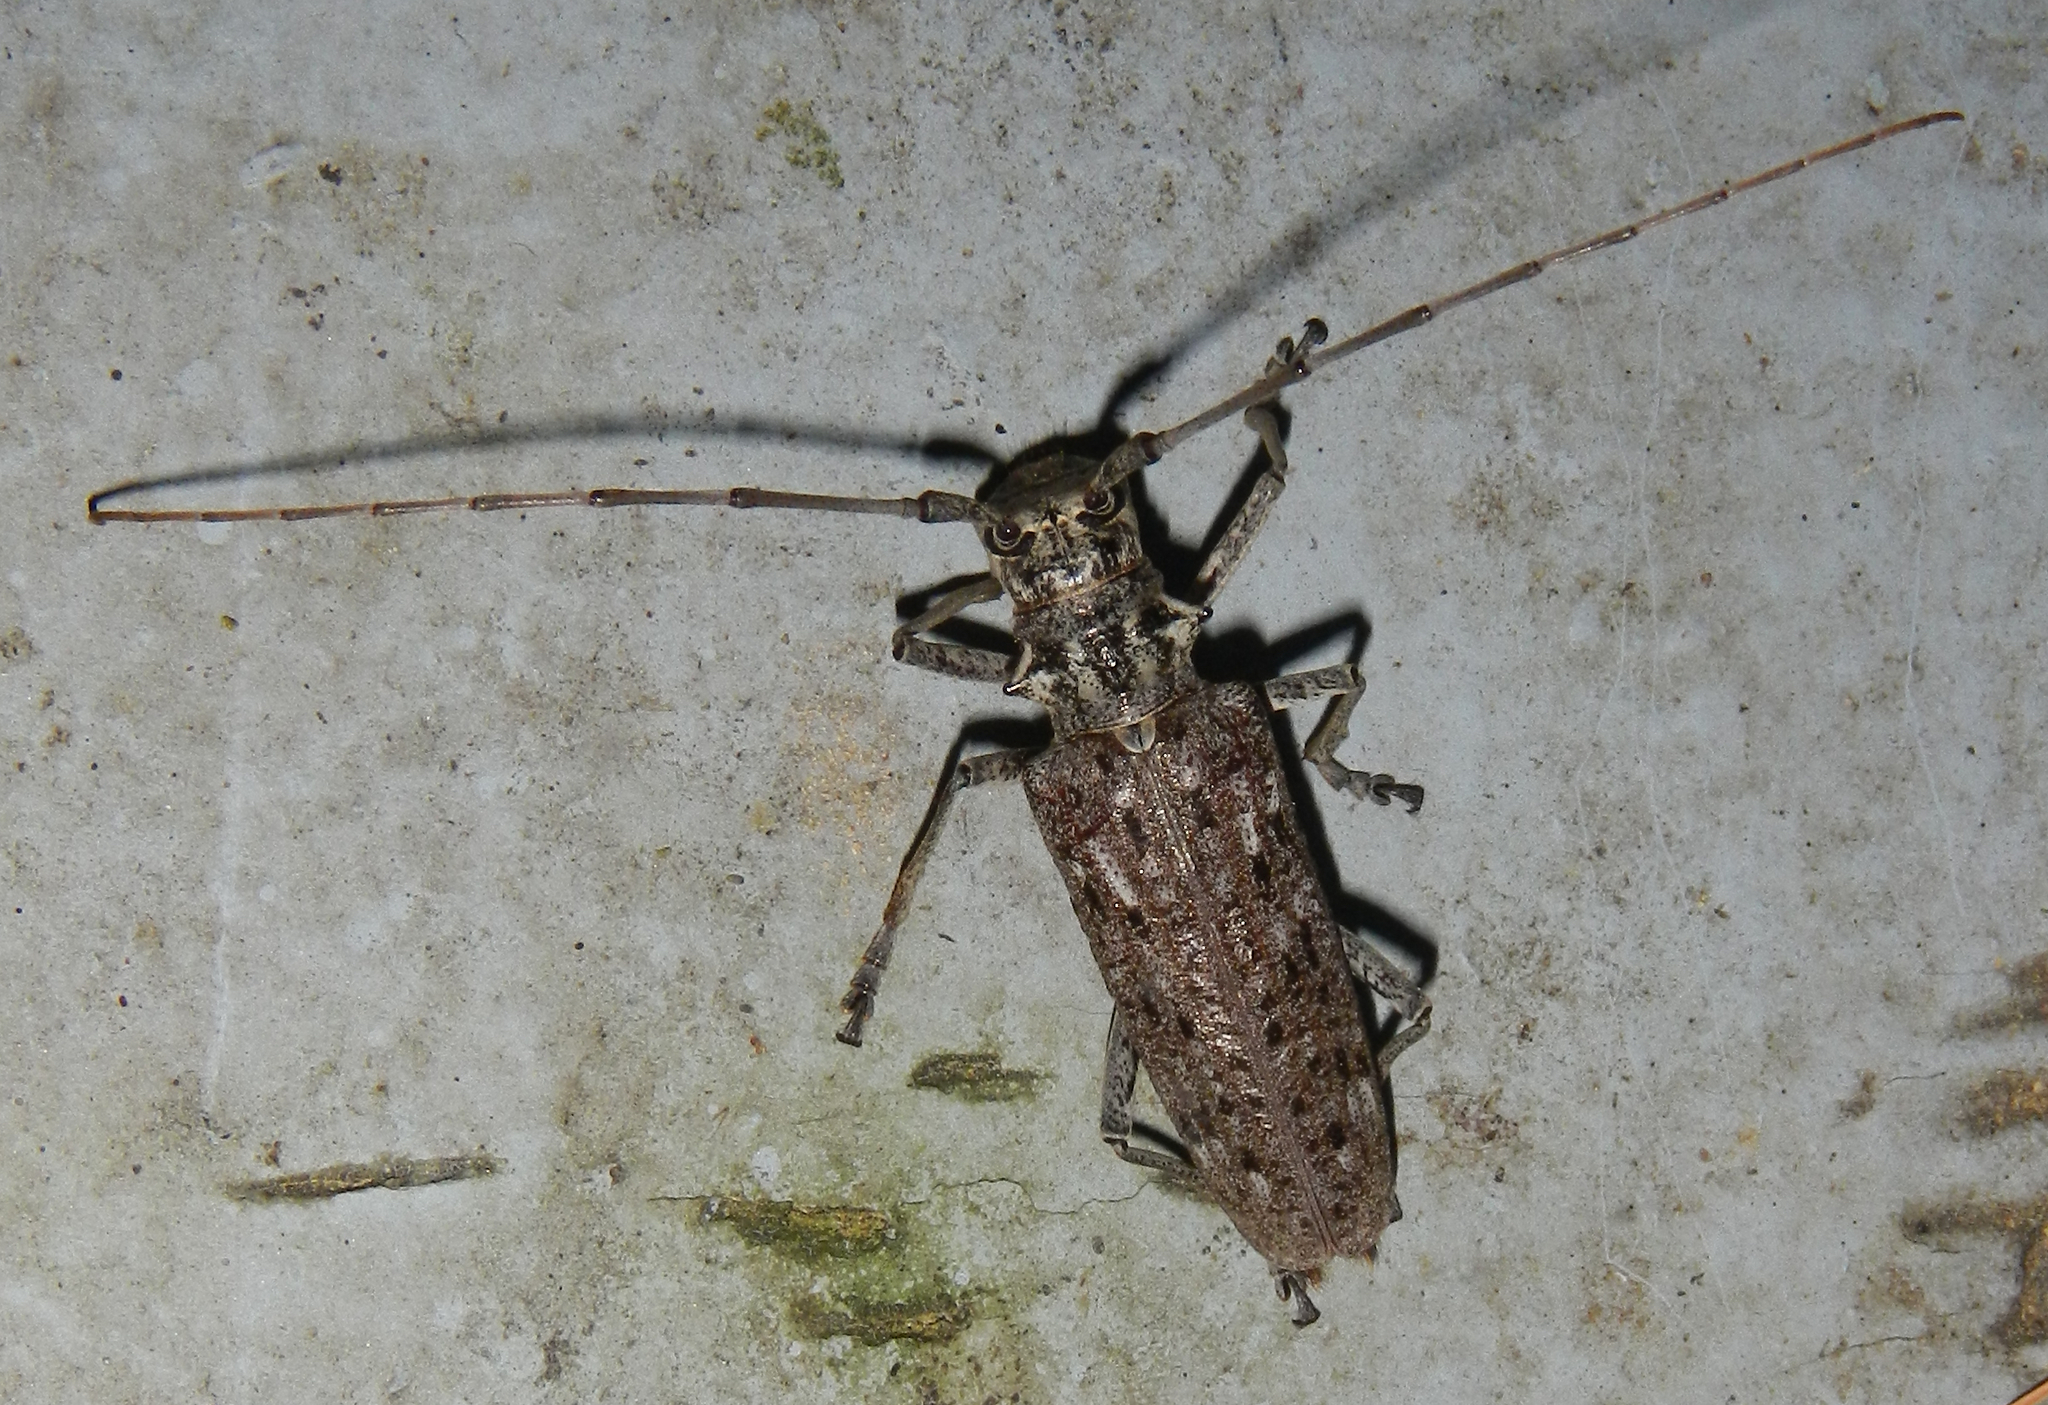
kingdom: Animalia
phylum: Arthropoda
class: Insecta
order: Coleoptera
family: Cerambycidae
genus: Monochamus
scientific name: Monochamus notatus
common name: Northeastern pine sawyer beetle
